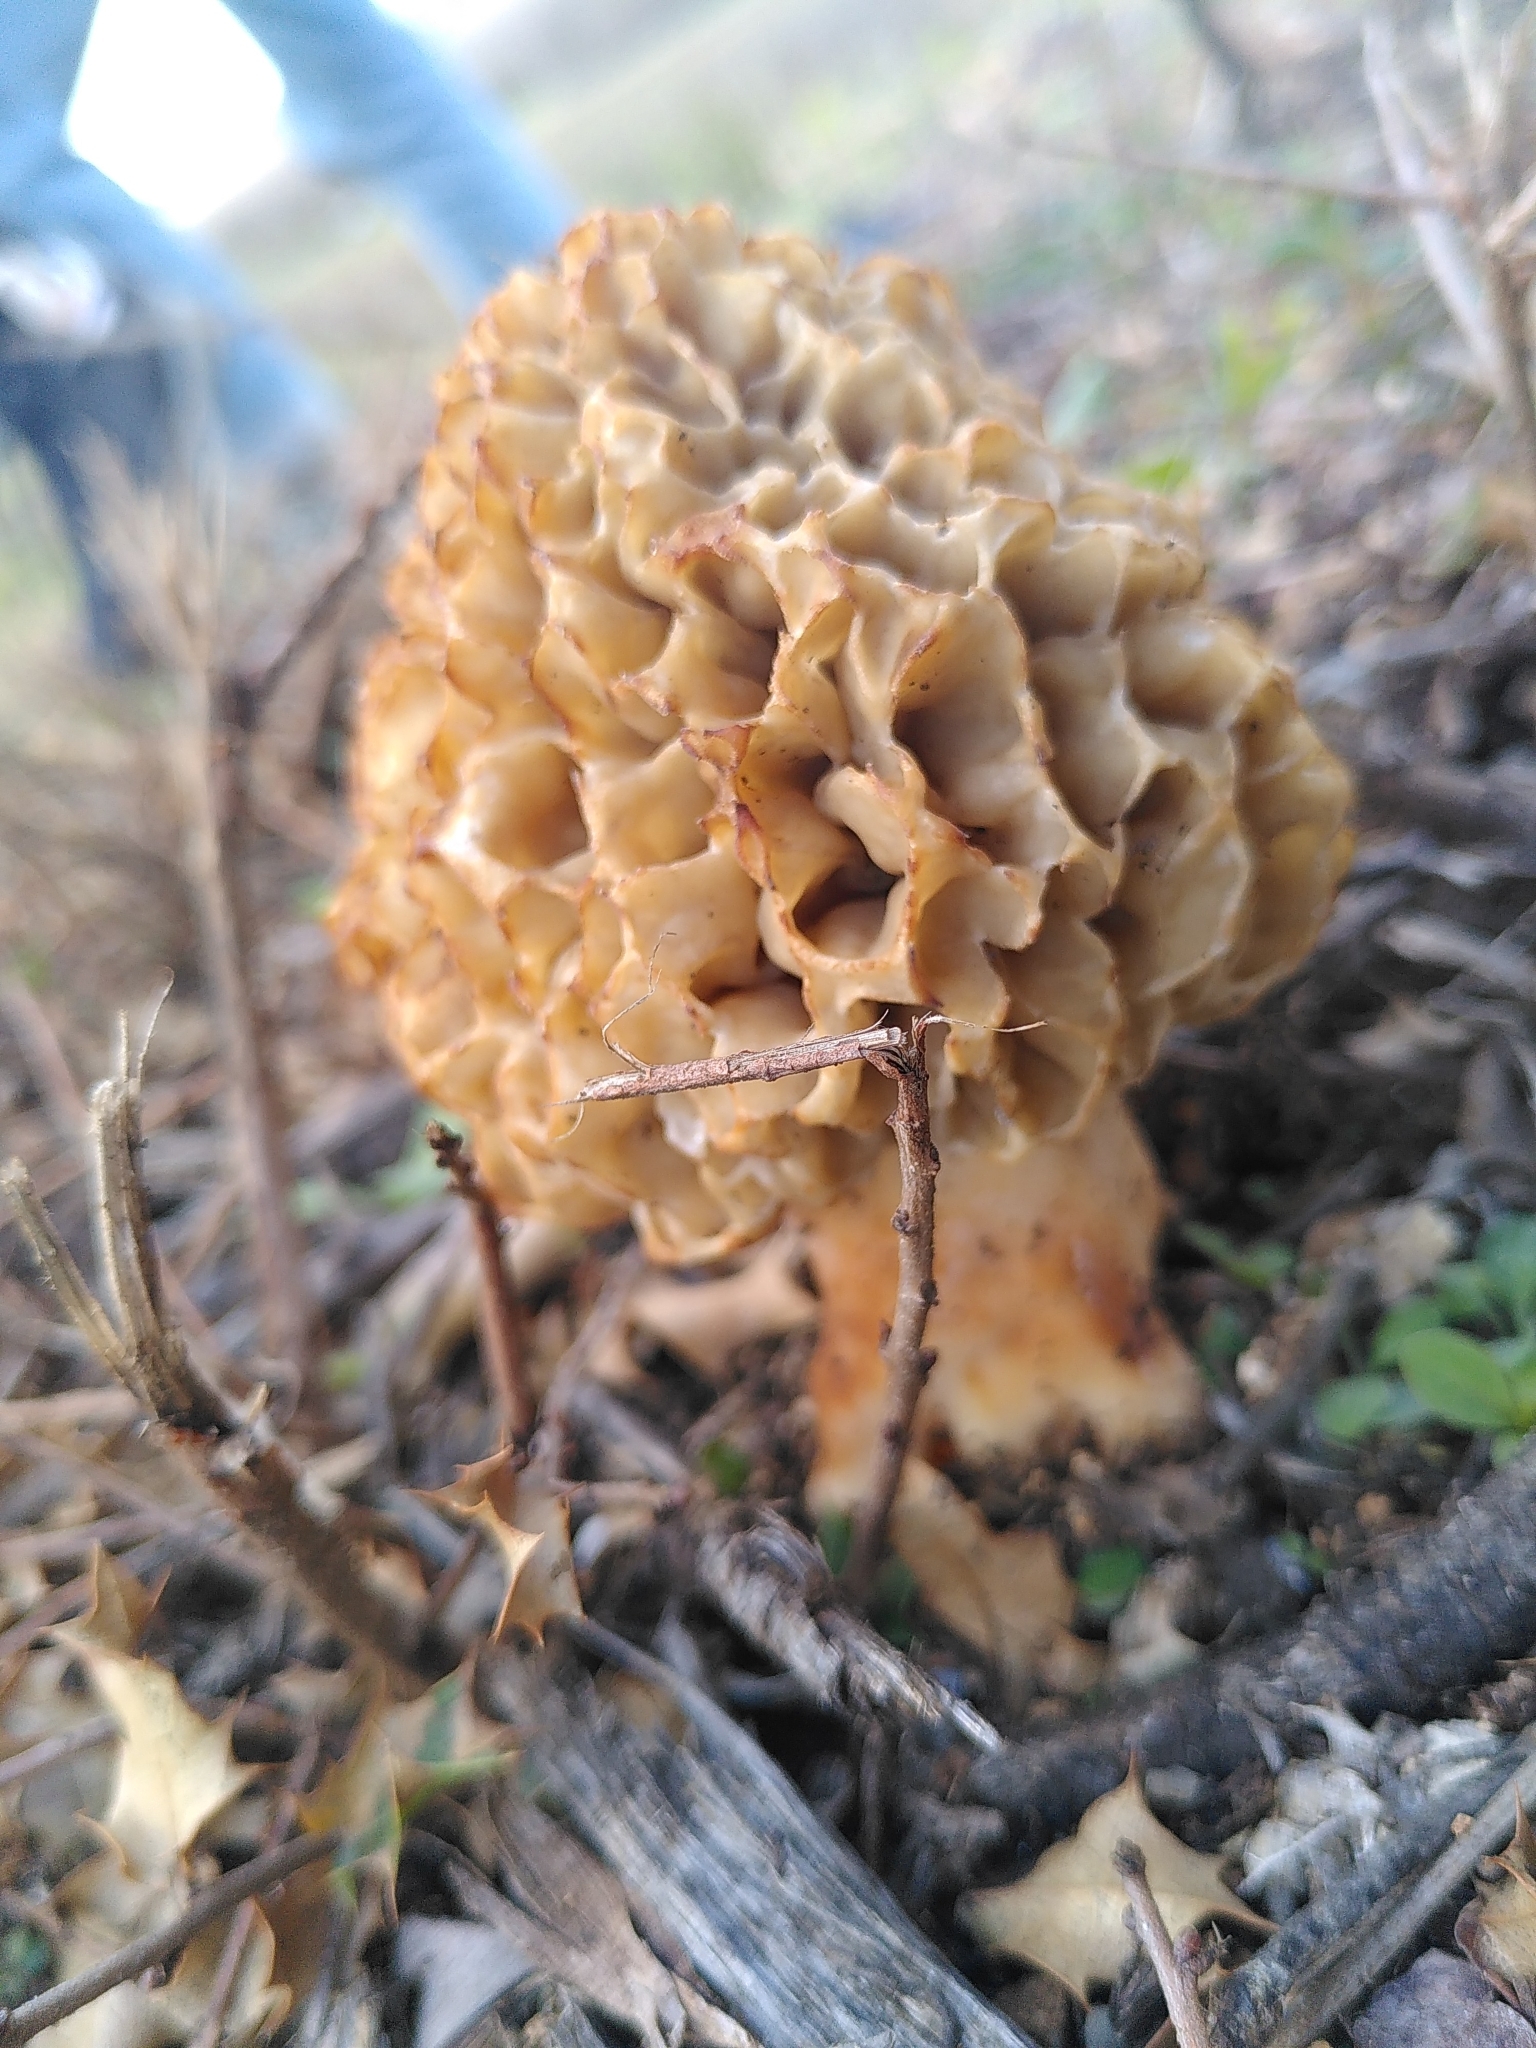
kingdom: Fungi
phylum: Ascomycota
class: Pezizomycetes
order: Pezizales
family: Morchellaceae
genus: Morchella
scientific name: Morchella esculenta
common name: Morel
